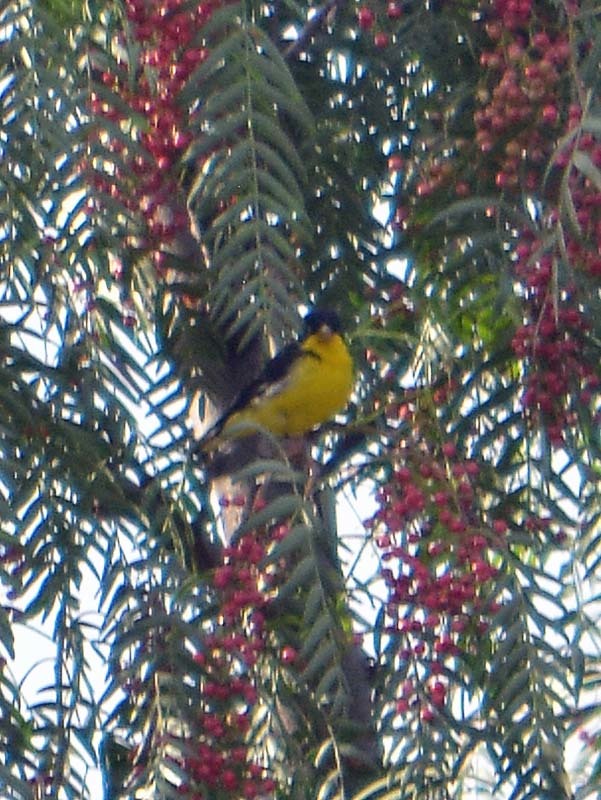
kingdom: Animalia
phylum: Chordata
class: Aves
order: Passeriformes
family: Fringillidae
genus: Spinus
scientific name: Spinus psaltria
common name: Lesser goldfinch
